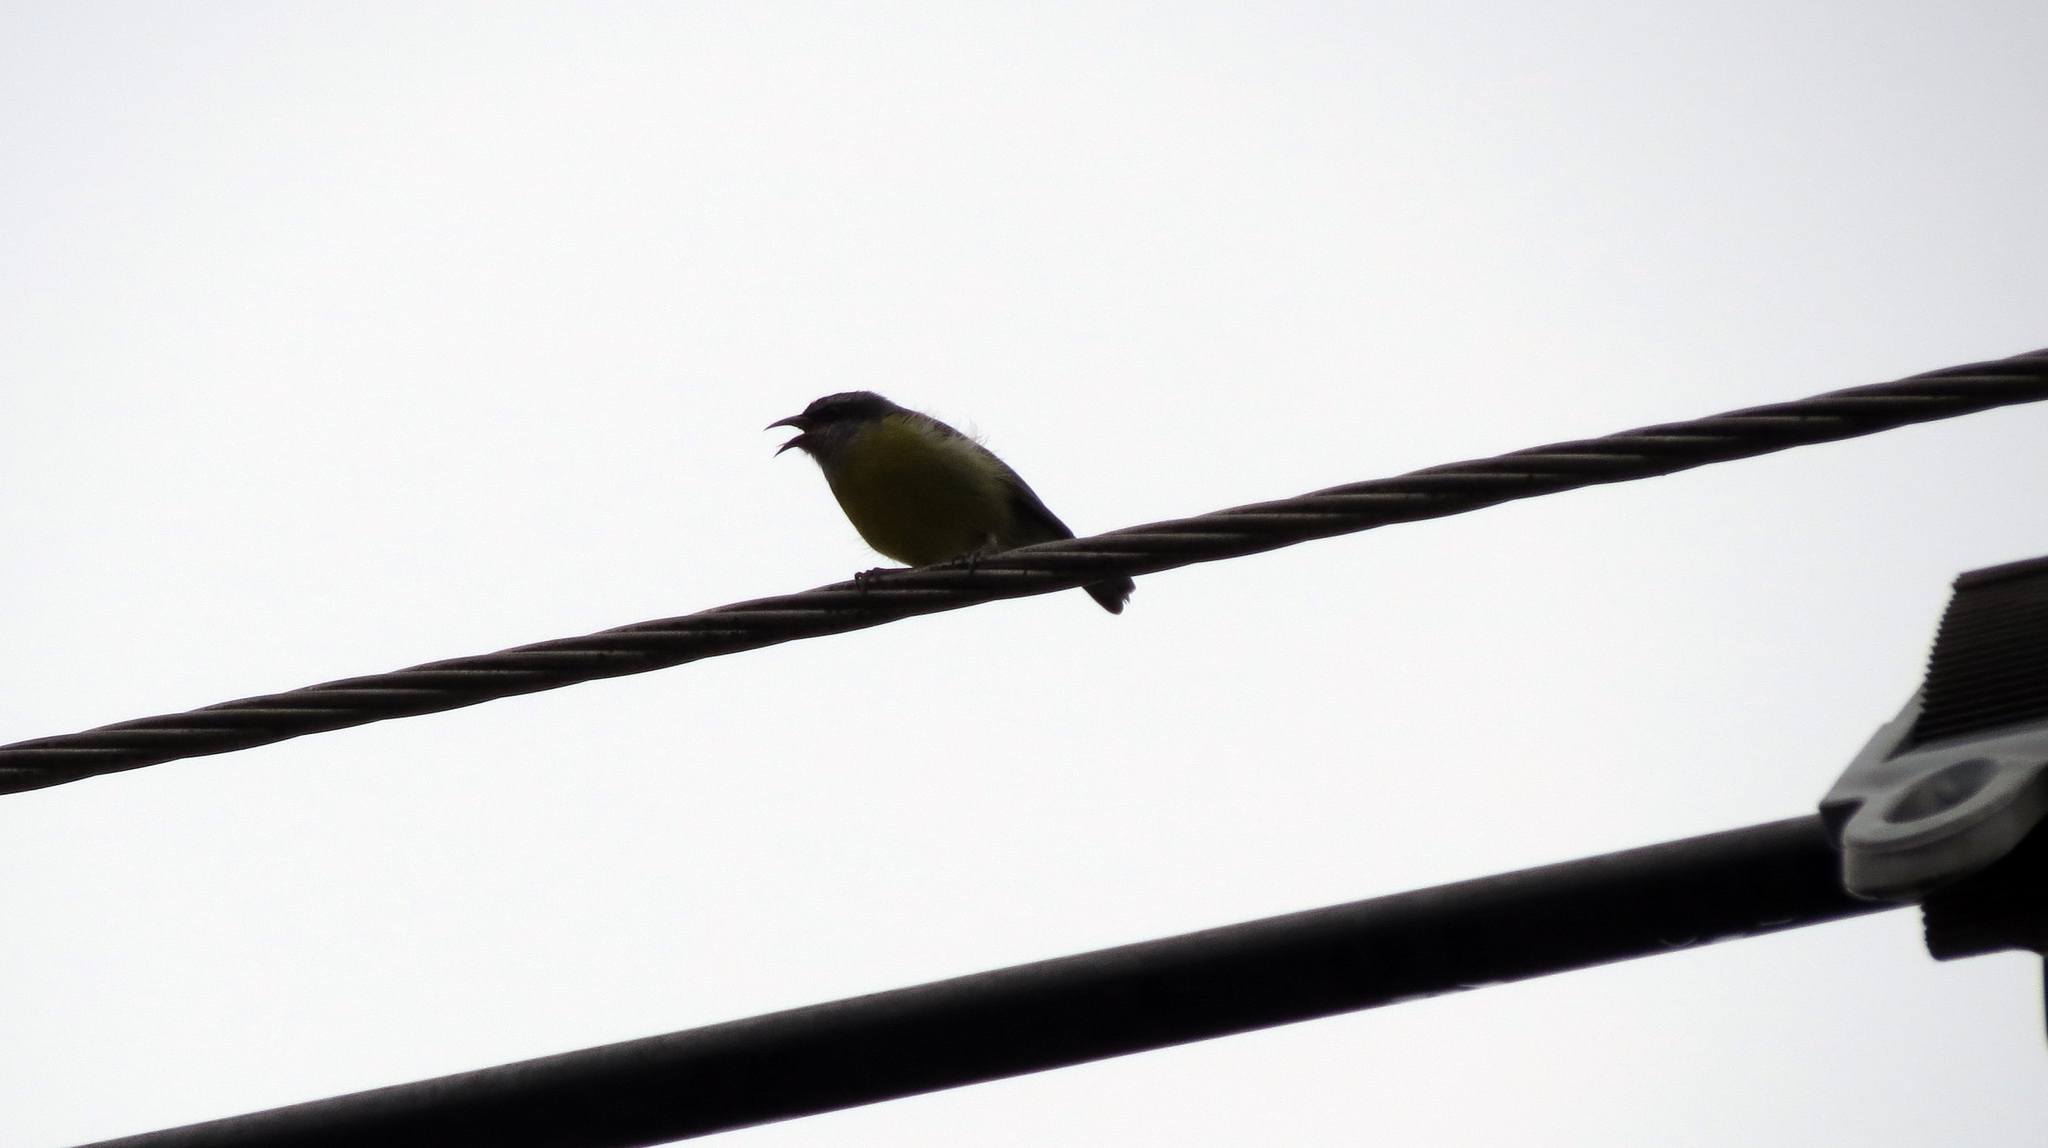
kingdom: Animalia
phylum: Chordata
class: Aves
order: Passeriformes
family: Thraupidae
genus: Coereba
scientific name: Coereba flaveola
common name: Bananaquit
